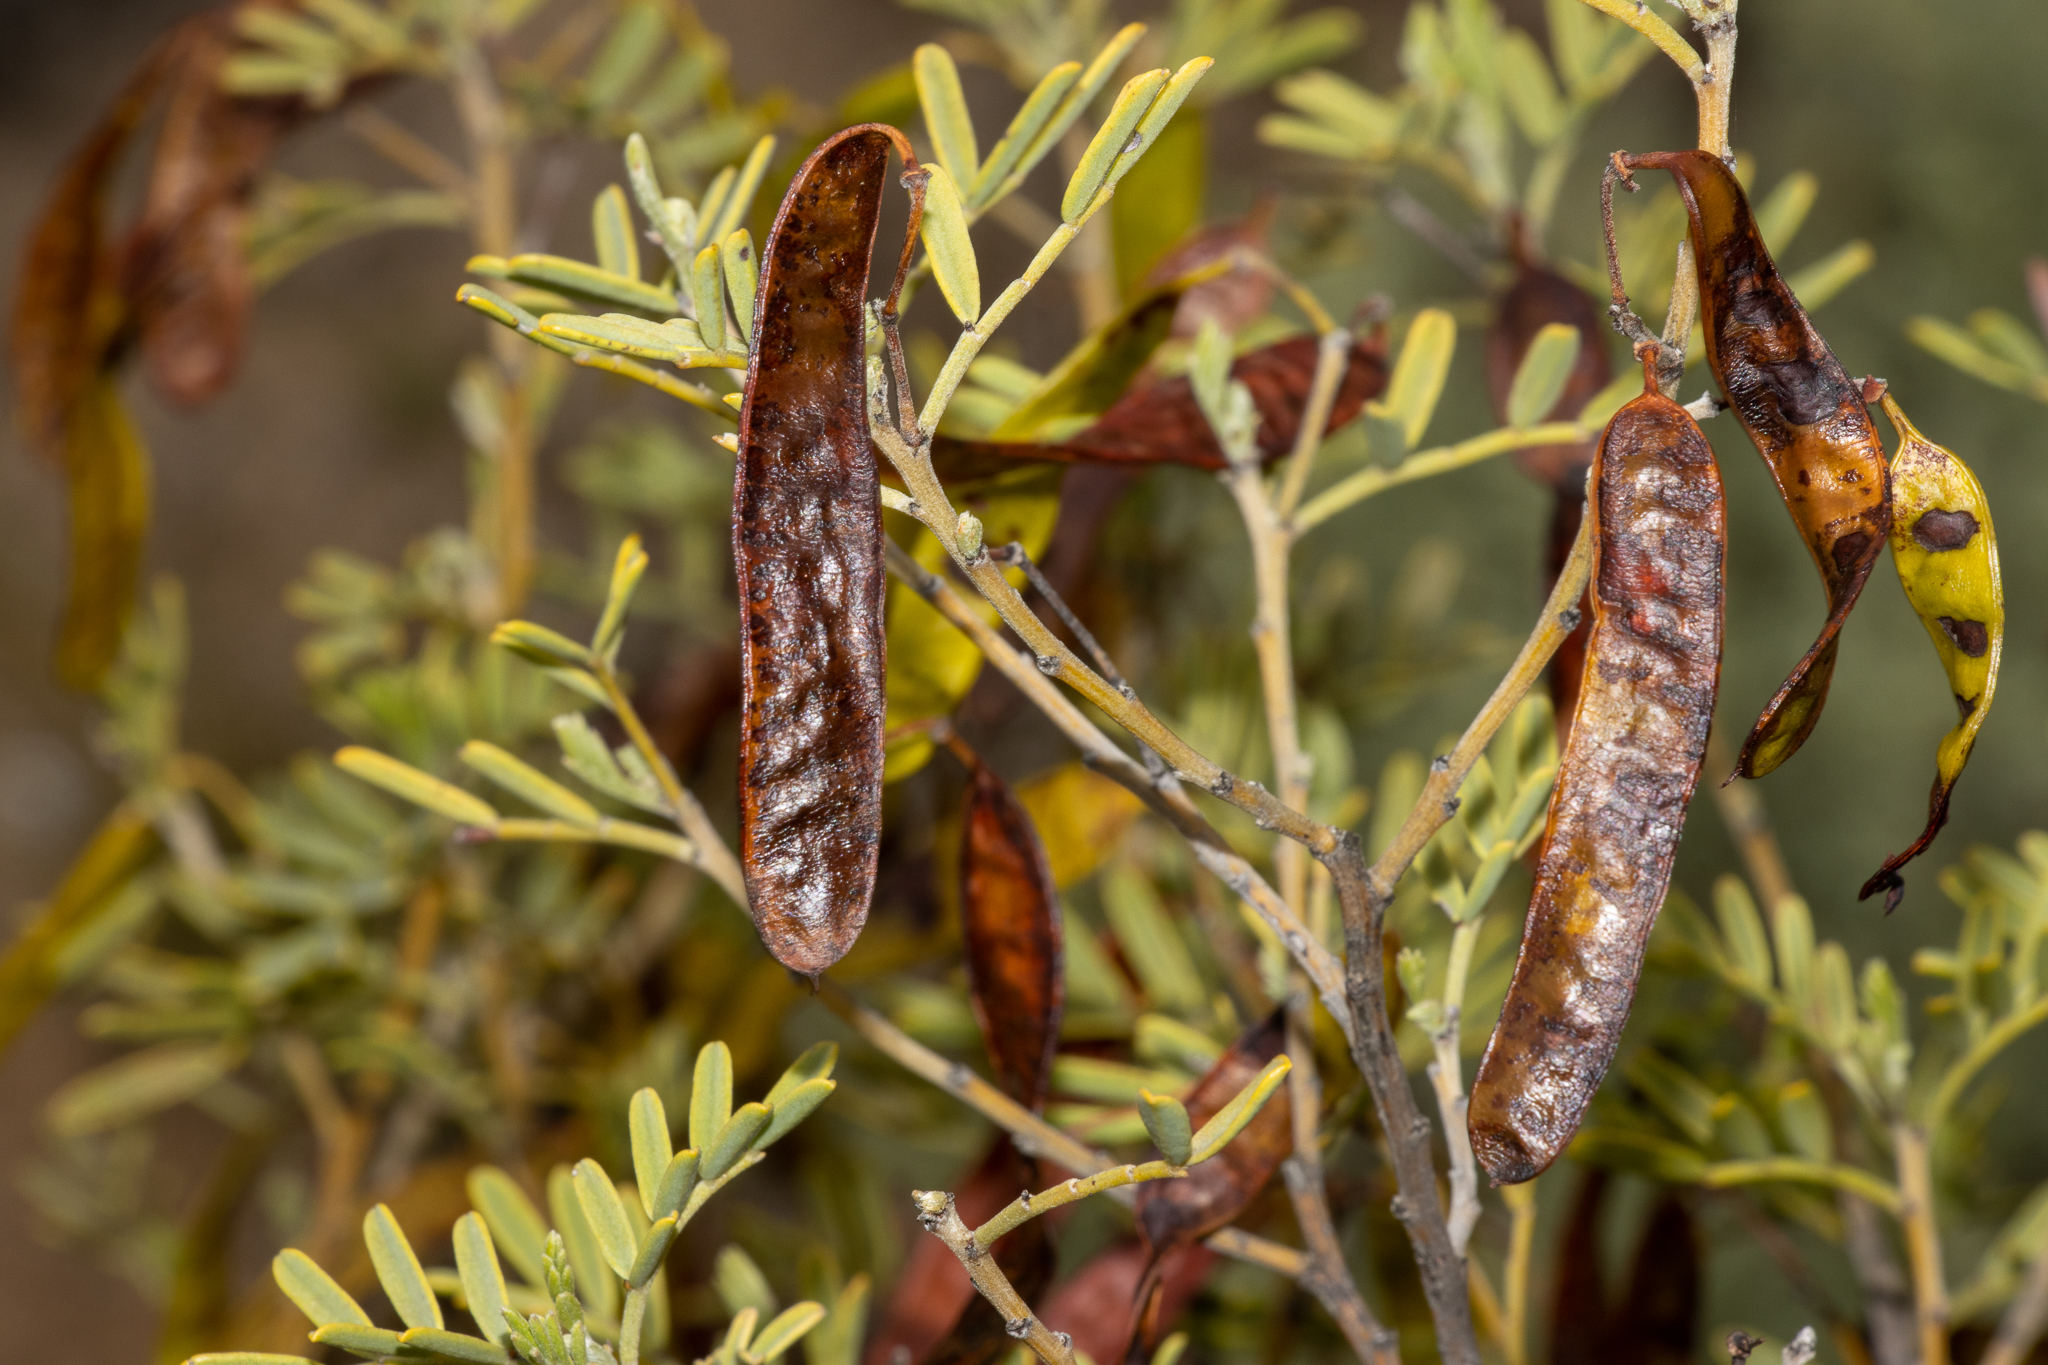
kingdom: Plantae
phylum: Tracheophyta
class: Magnoliopsida
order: Fabales
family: Fabaceae
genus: Senna
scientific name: Senna artemisioides
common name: Burnt-leaved acacia
